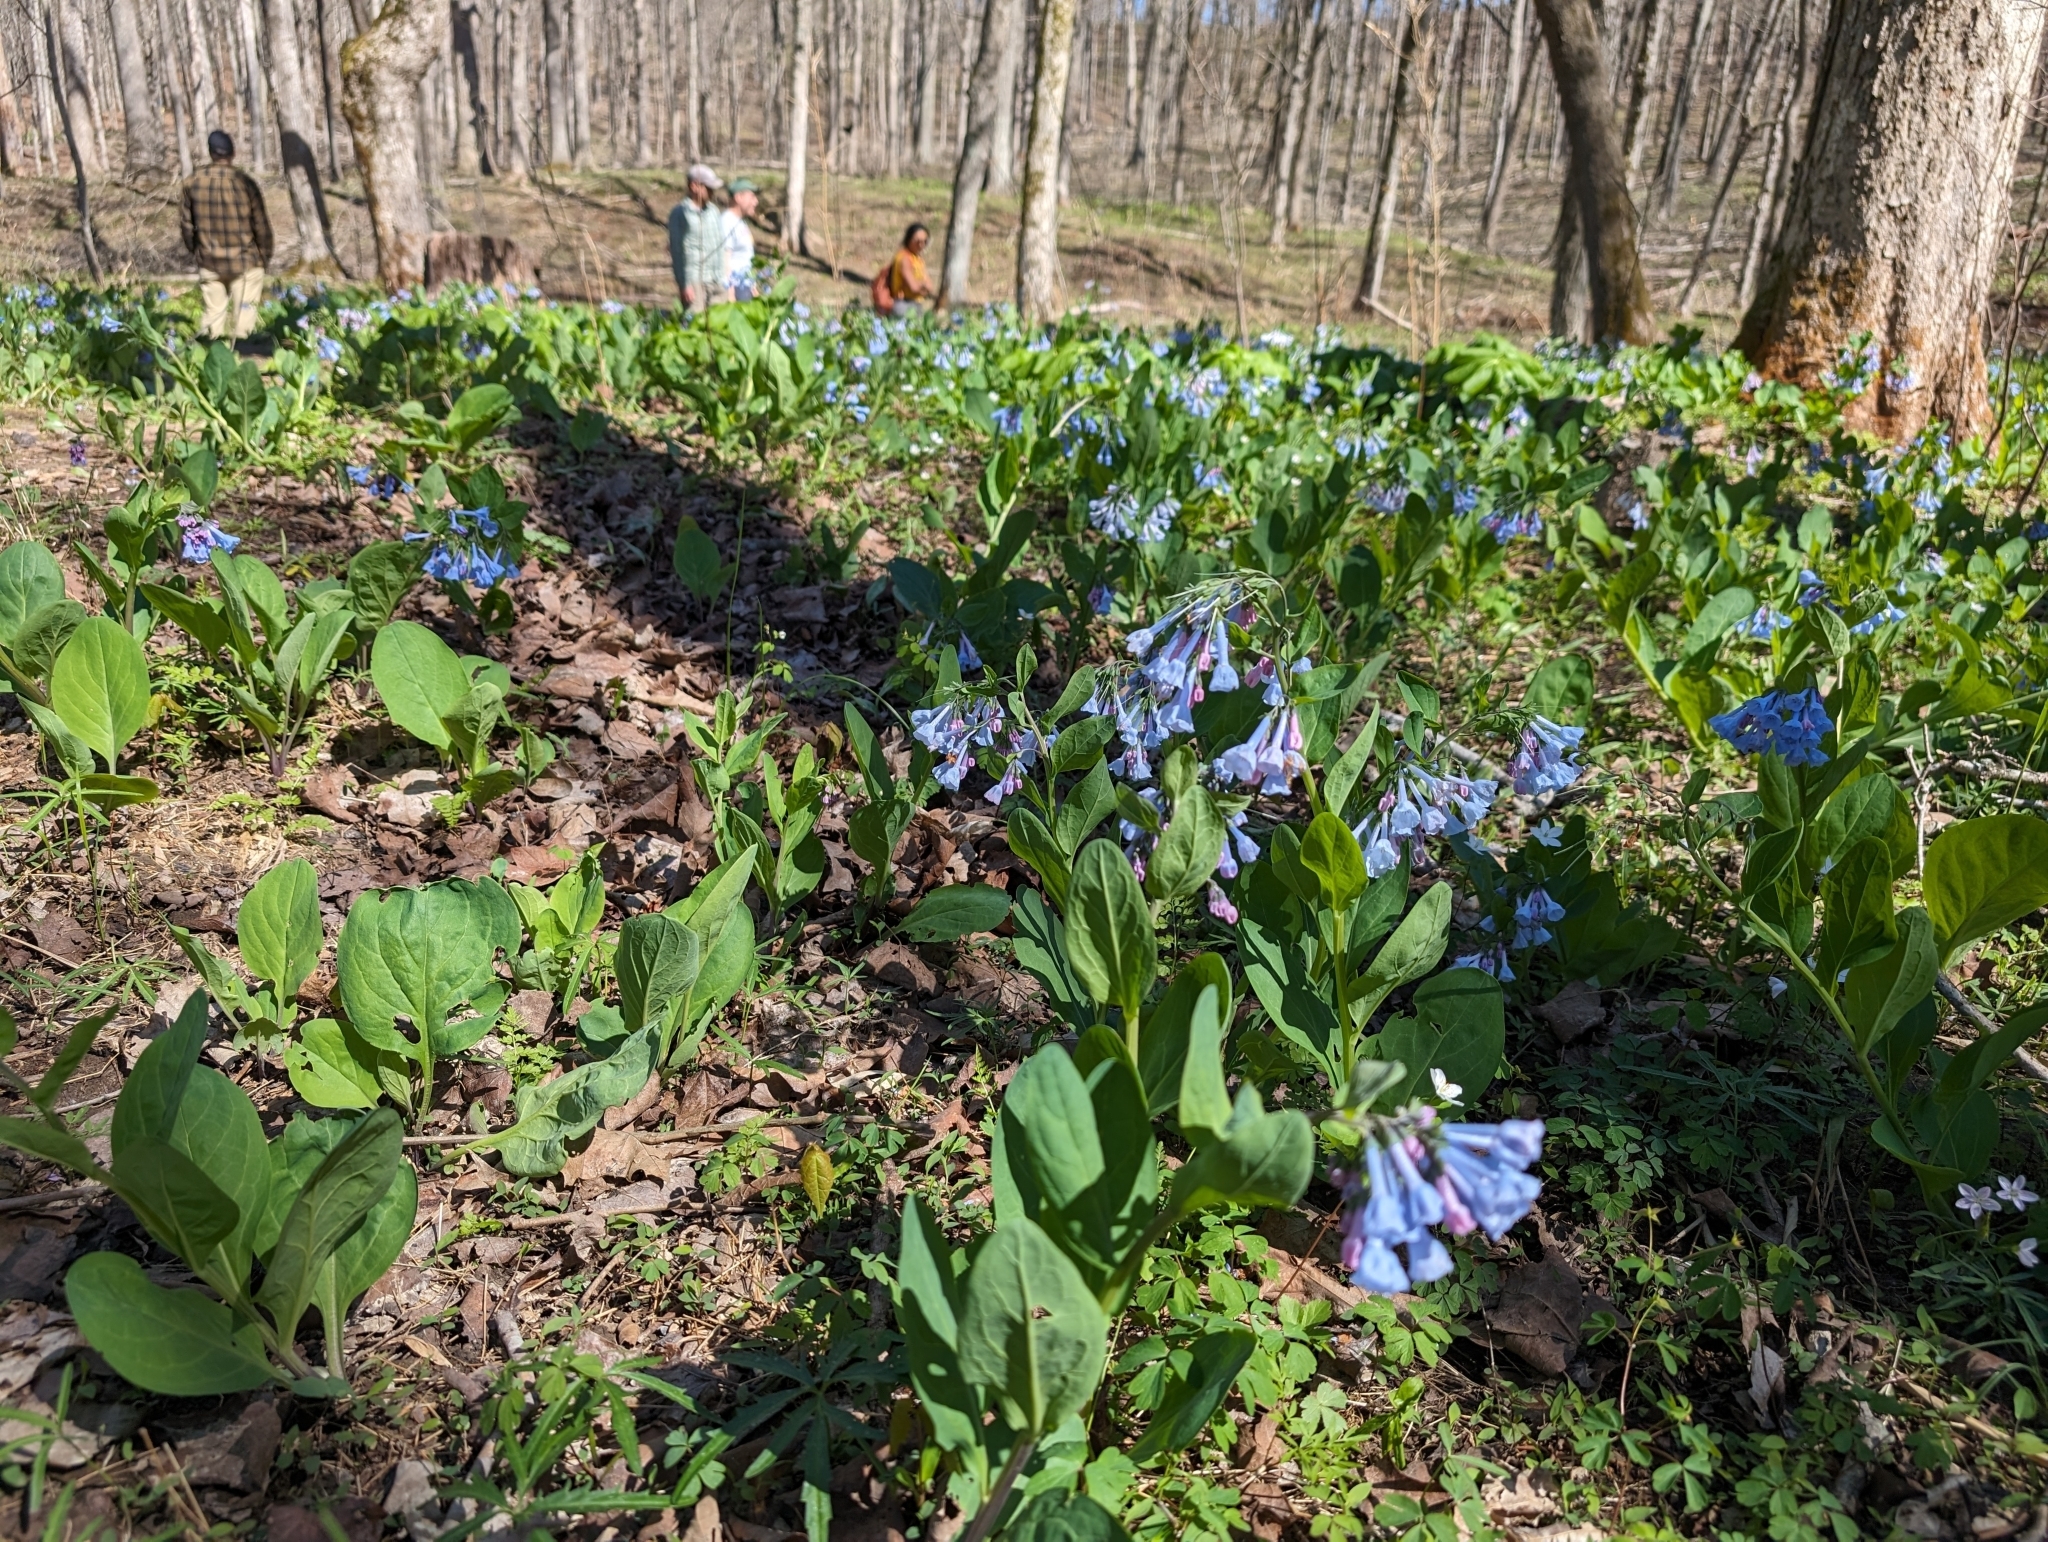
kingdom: Plantae
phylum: Tracheophyta
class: Magnoliopsida
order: Boraginales
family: Boraginaceae
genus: Mertensia
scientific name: Mertensia virginica
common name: Virginia bluebells
